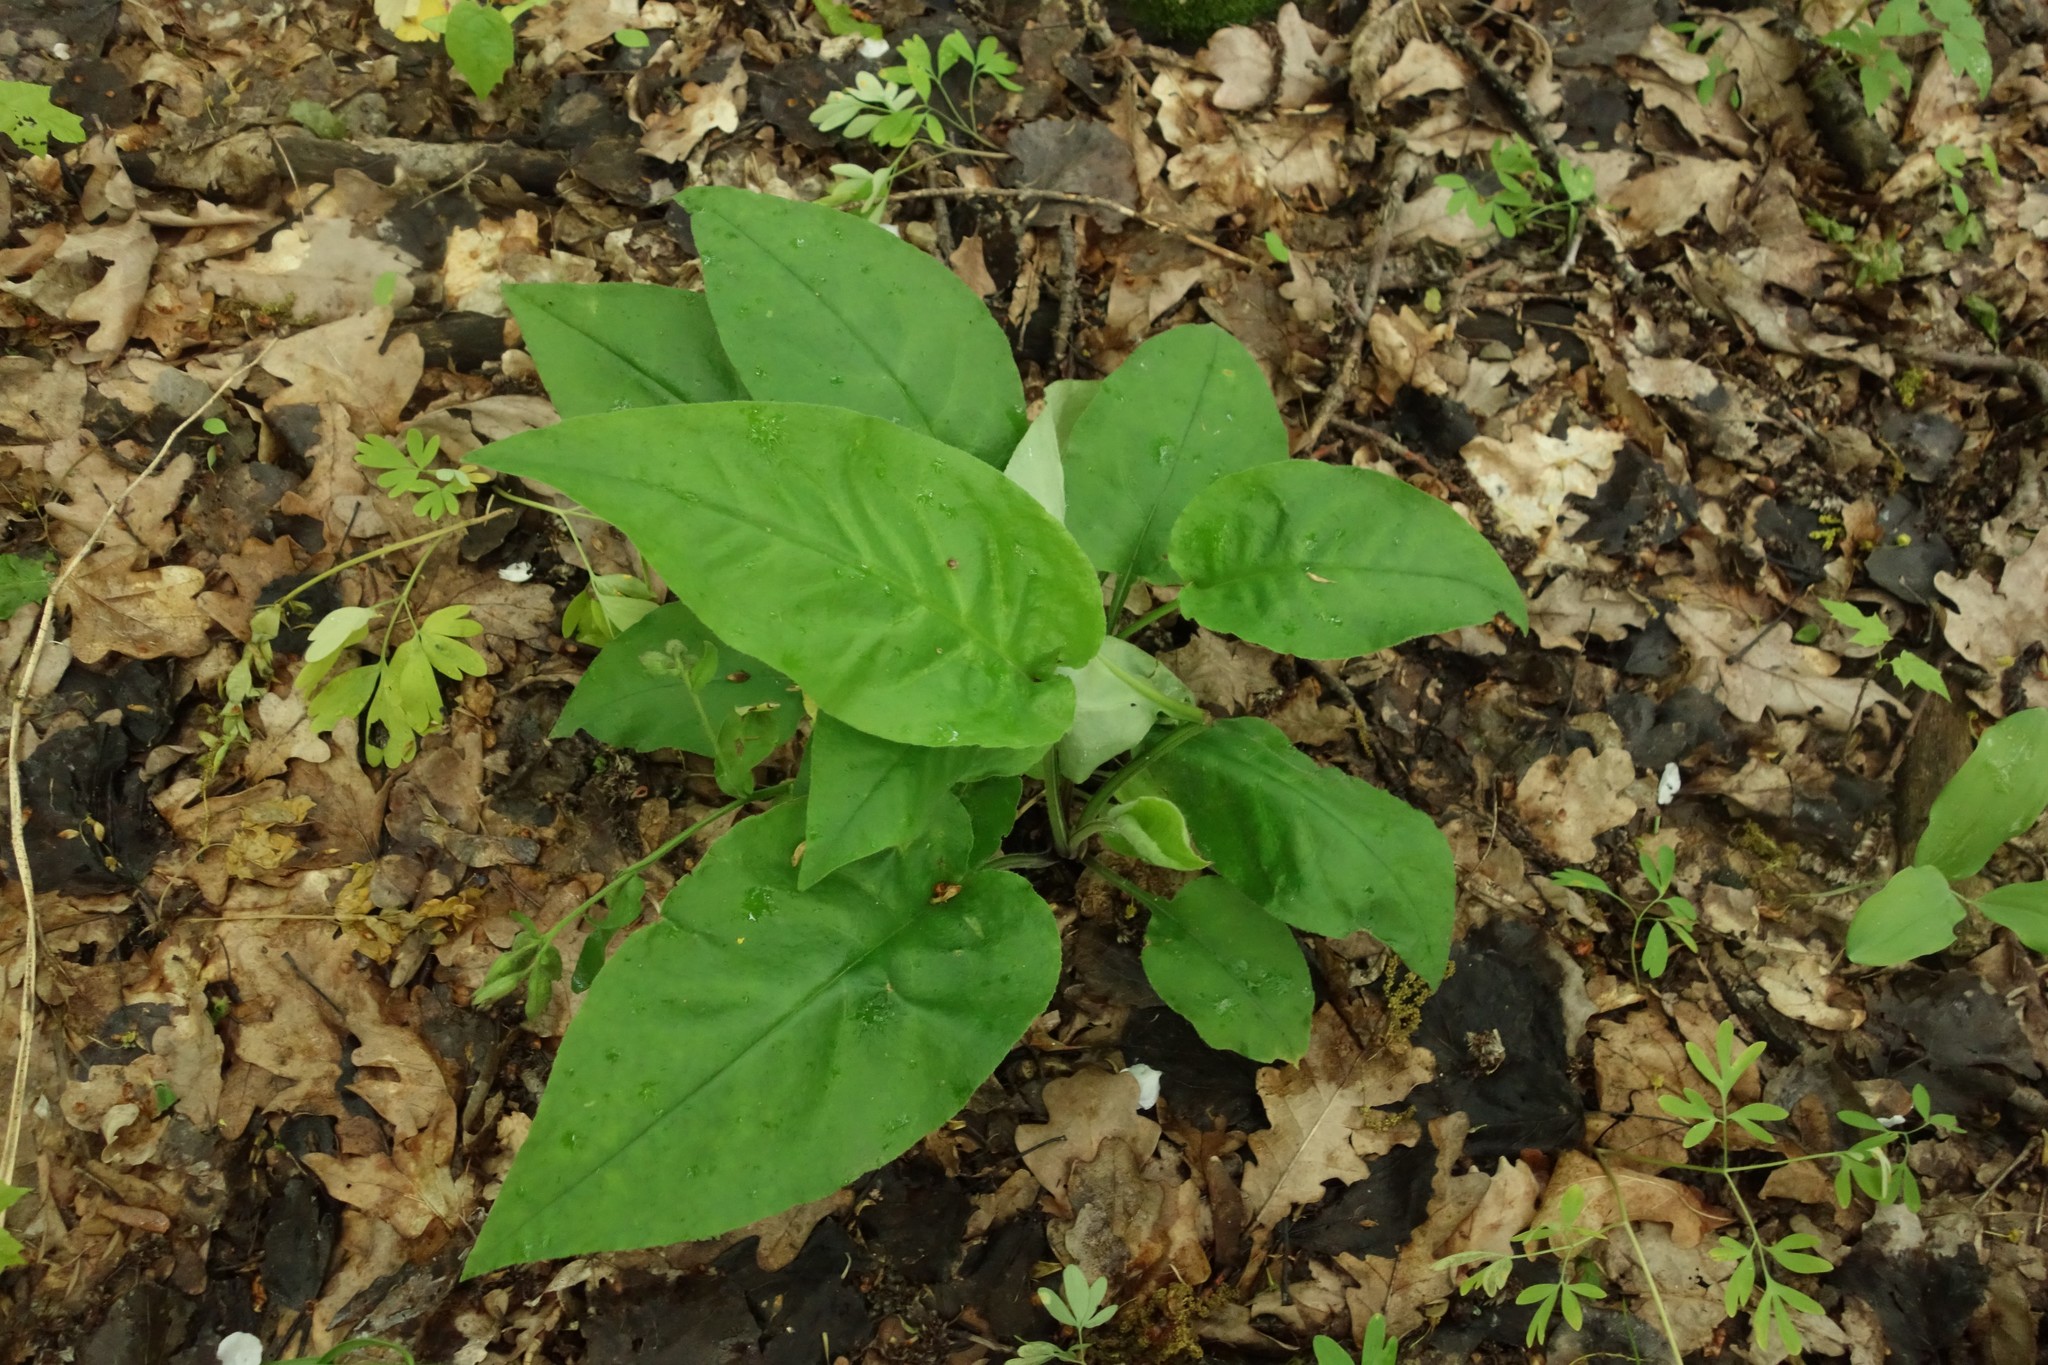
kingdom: Plantae
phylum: Tracheophyta
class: Magnoliopsida
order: Boraginales
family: Boraginaceae
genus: Pulmonaria
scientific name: Pulmonaria obscura
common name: Suffolk lungwort
